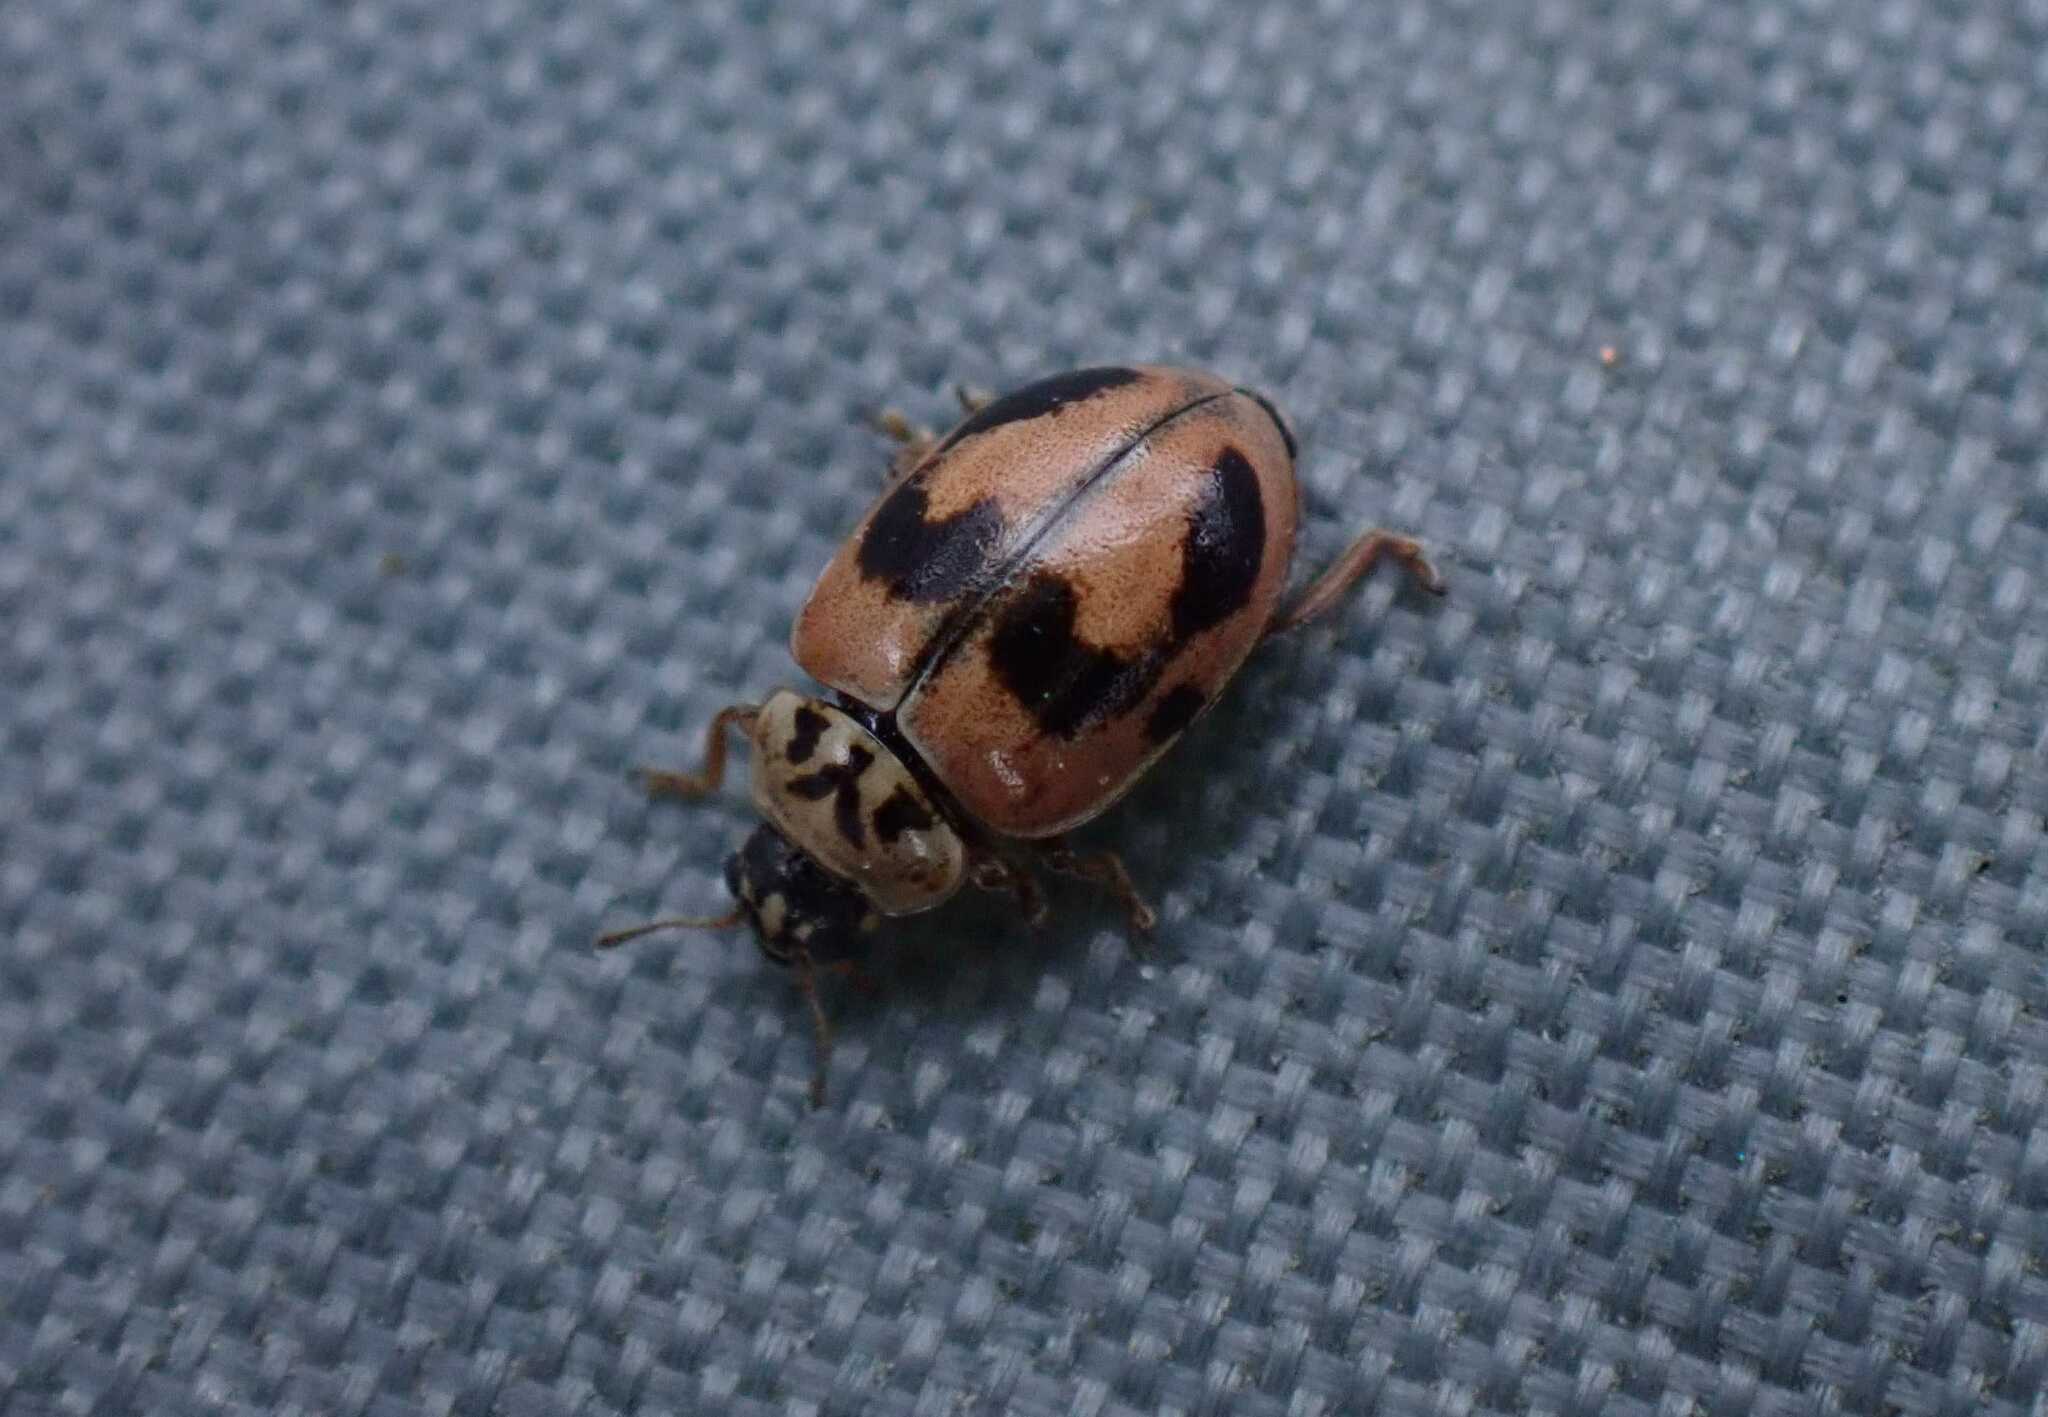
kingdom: Animalia
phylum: Arthropoda
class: Insecta
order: Coleoptera
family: Coccinellidae
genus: Aphidecta
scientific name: Aphidecta obliterata
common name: Larch ladybird
